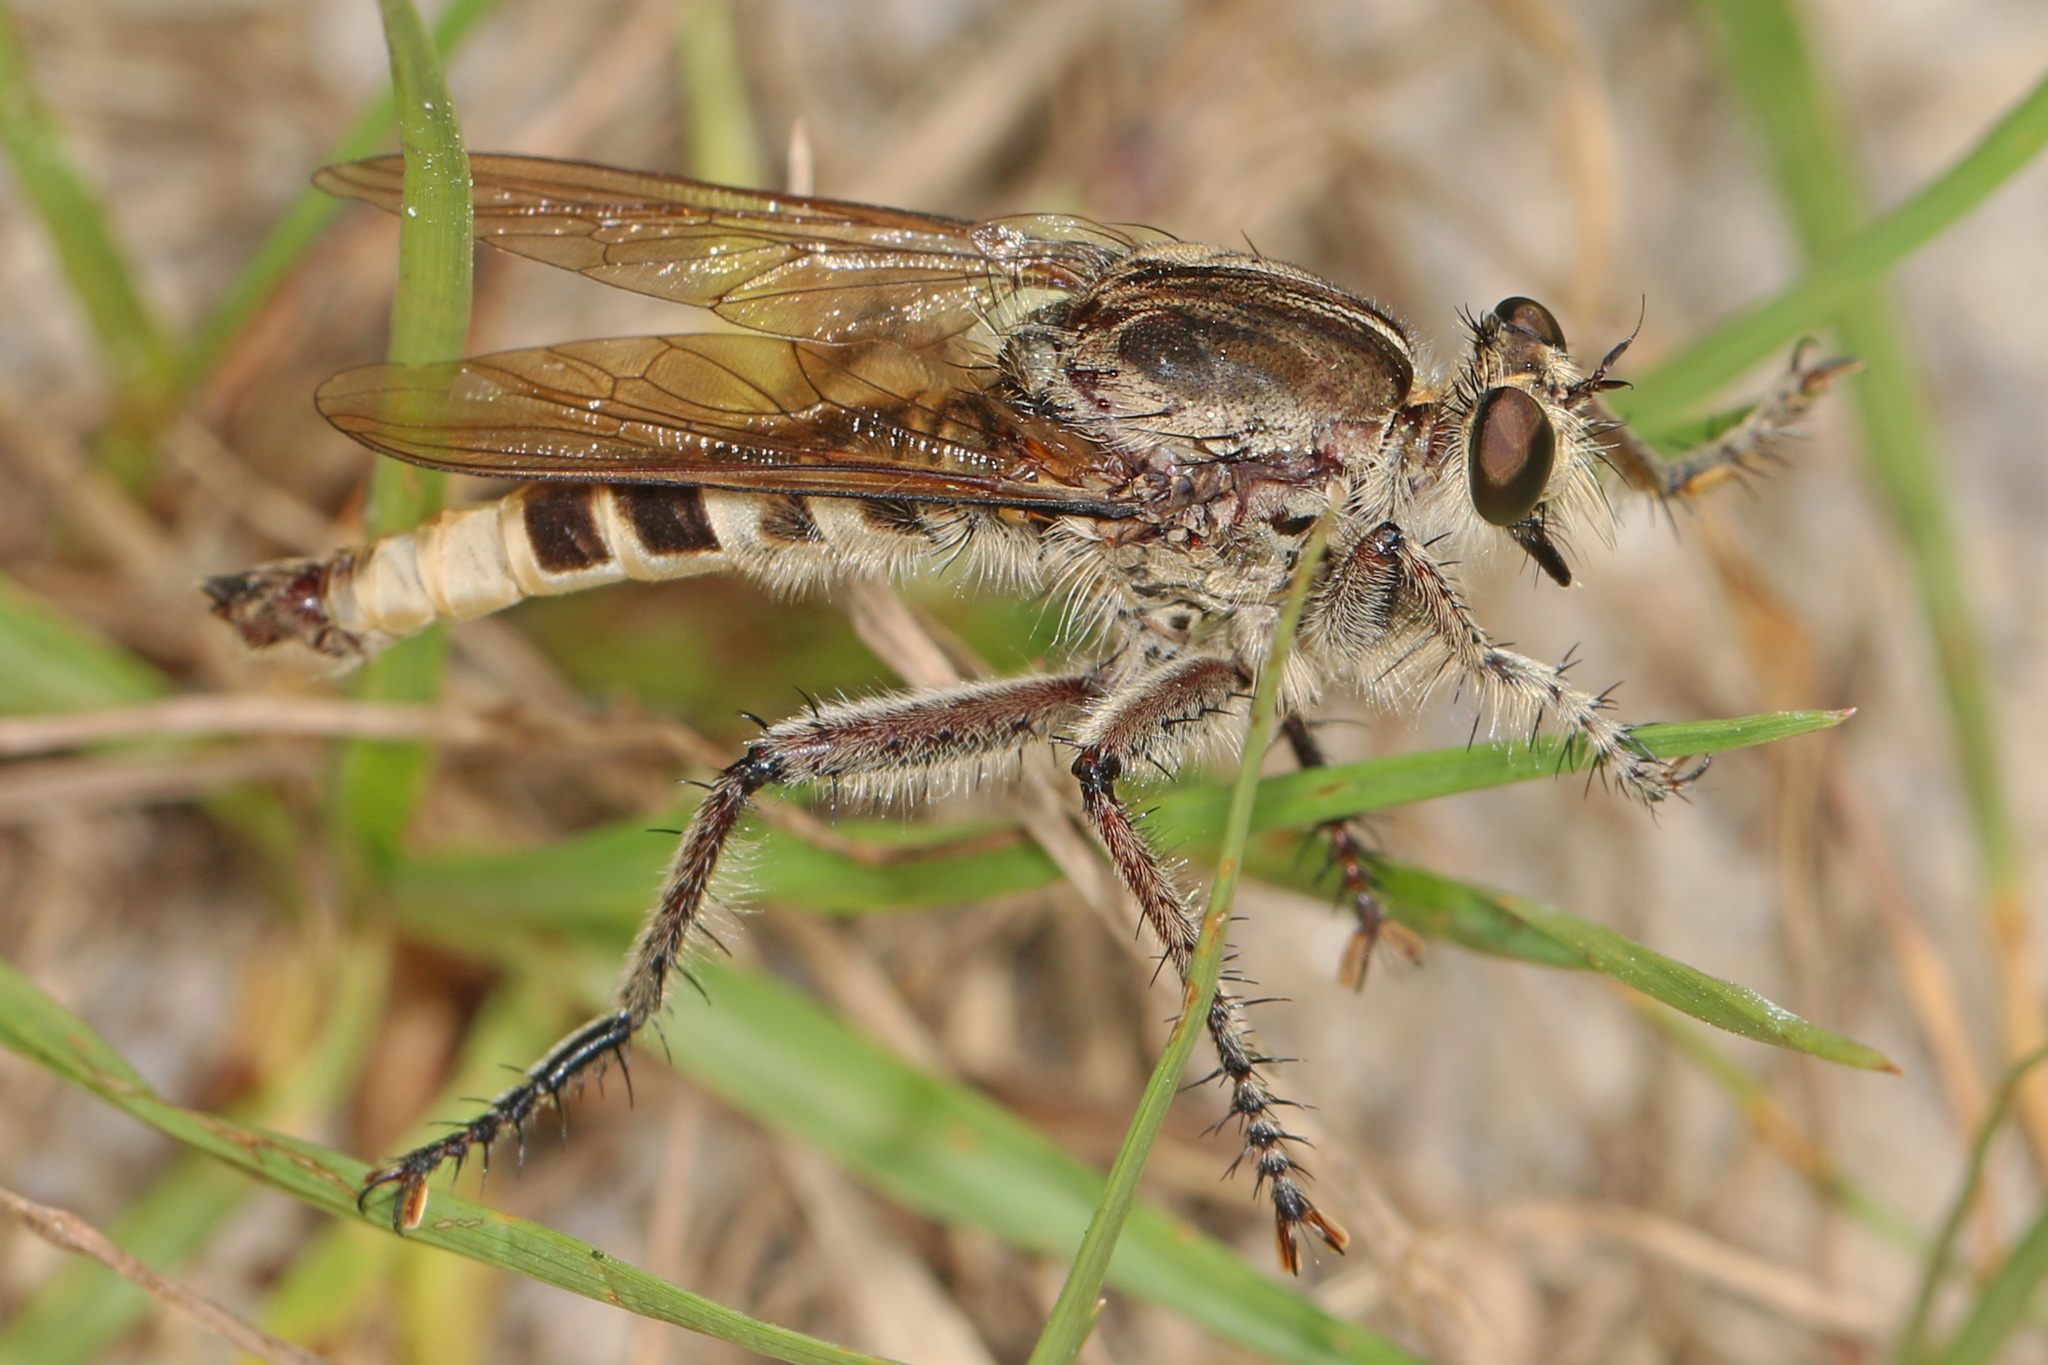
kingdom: Animalia
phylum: Arthropoda
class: Insecta
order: Diptera
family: Asilidae
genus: Triorla
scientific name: Triorla interrupta
